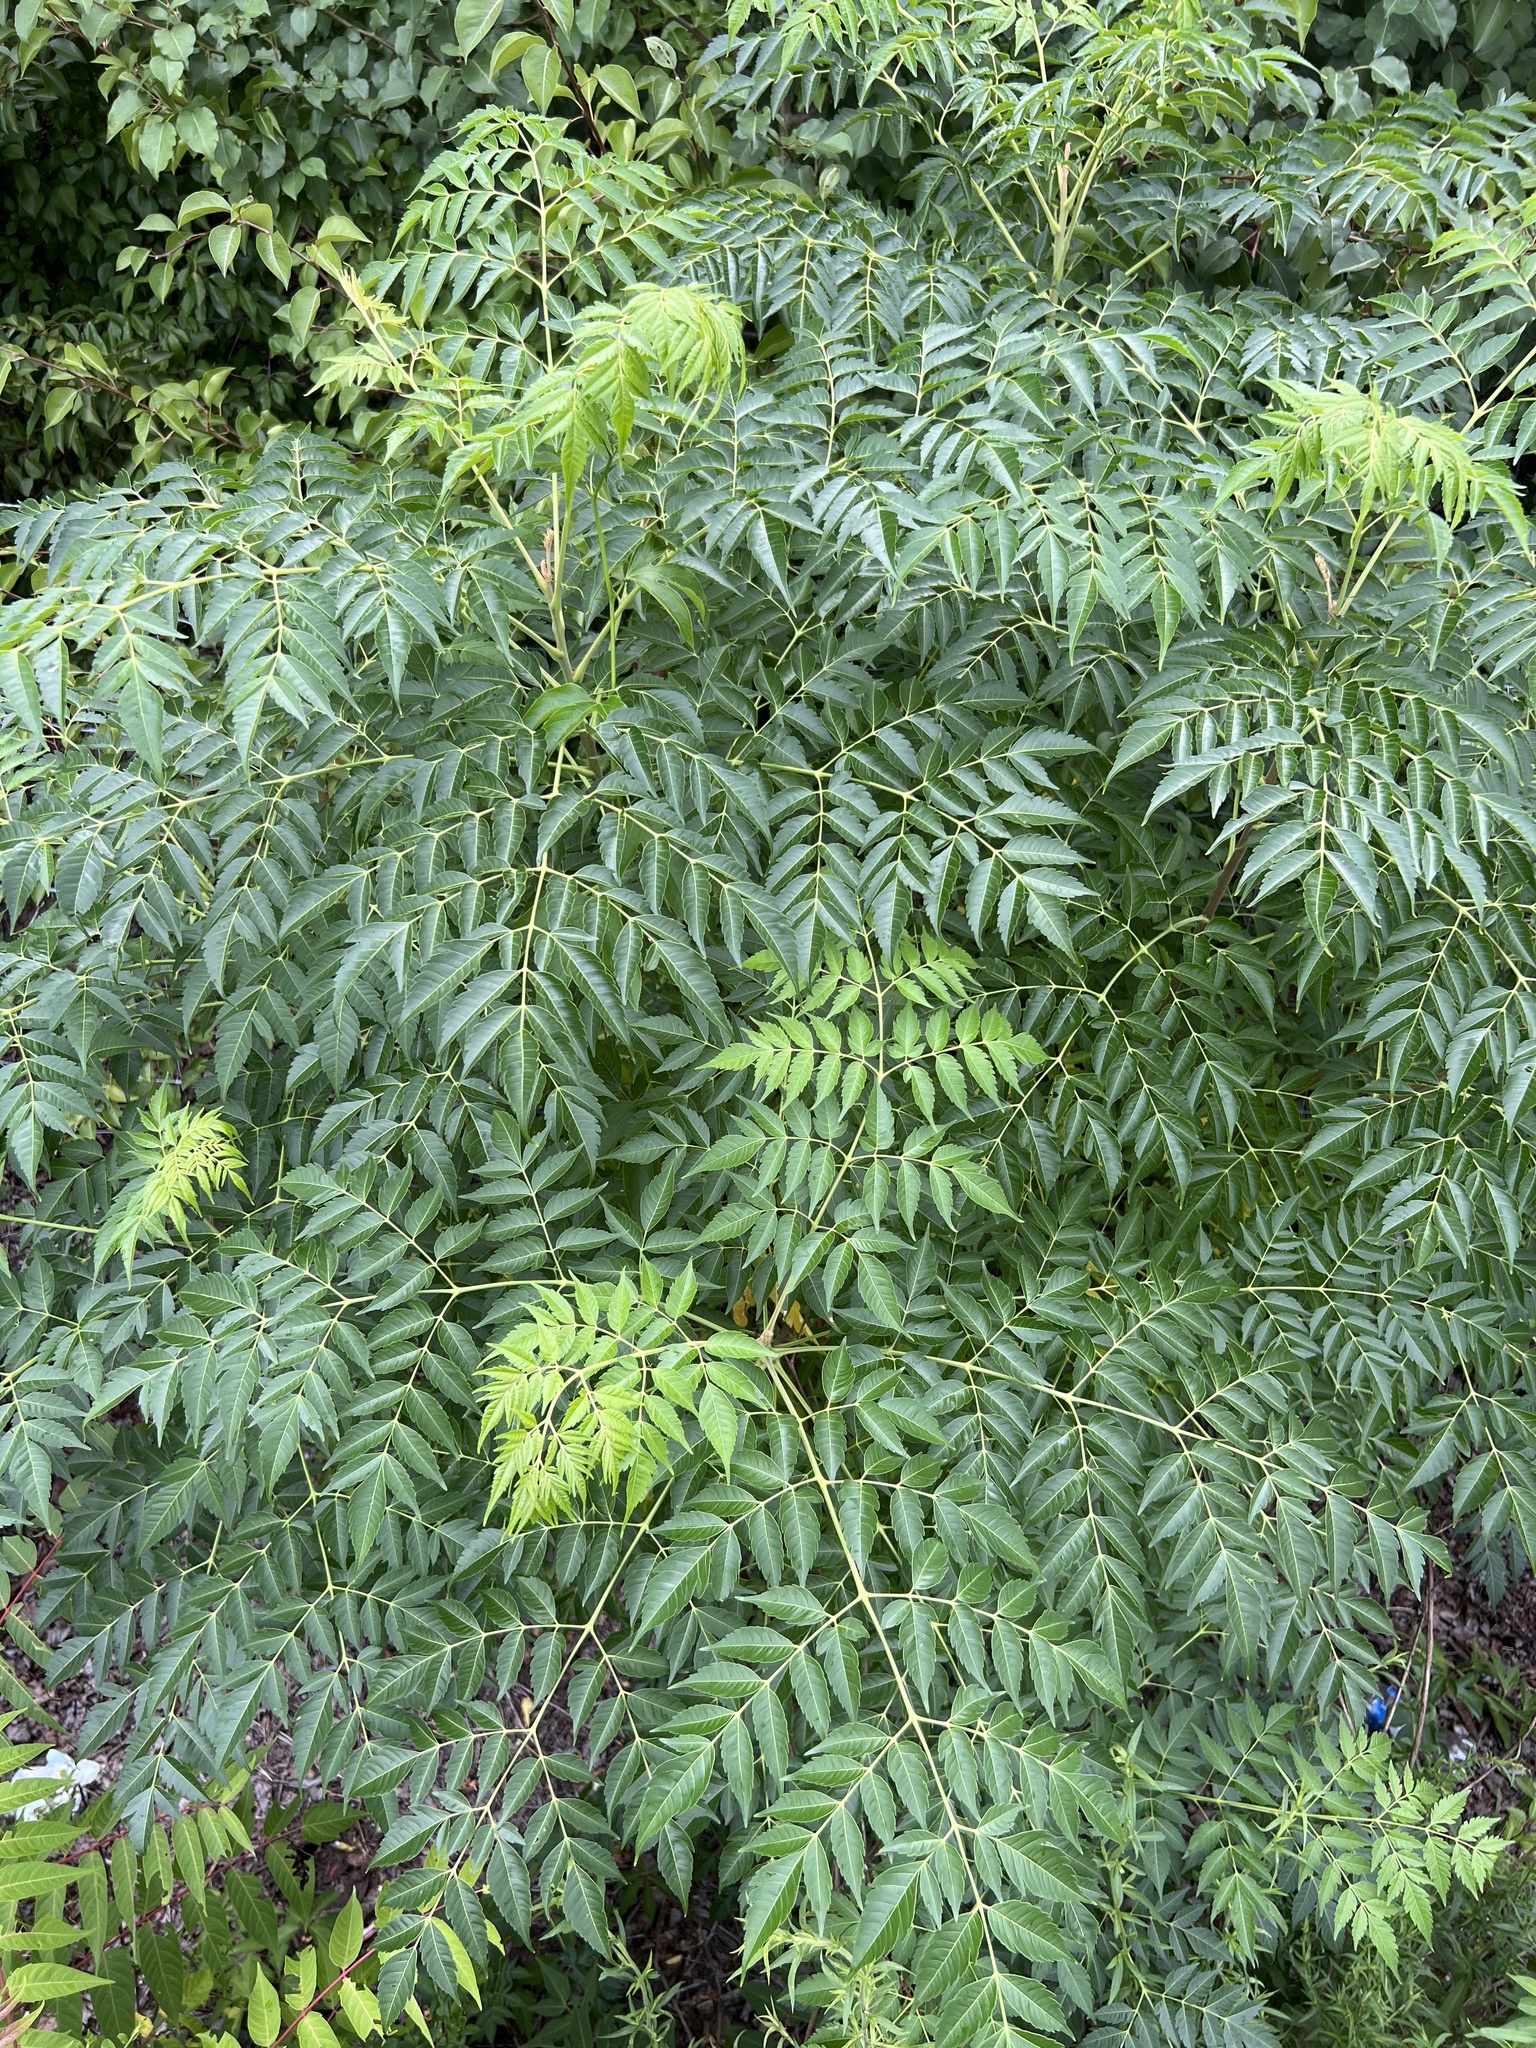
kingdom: Plantae
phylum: Tracheophyta
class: Magnoliopsida
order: Sapindales
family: Meliaceae
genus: Melia
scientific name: Melia azedarach
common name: Chinaberrytree
